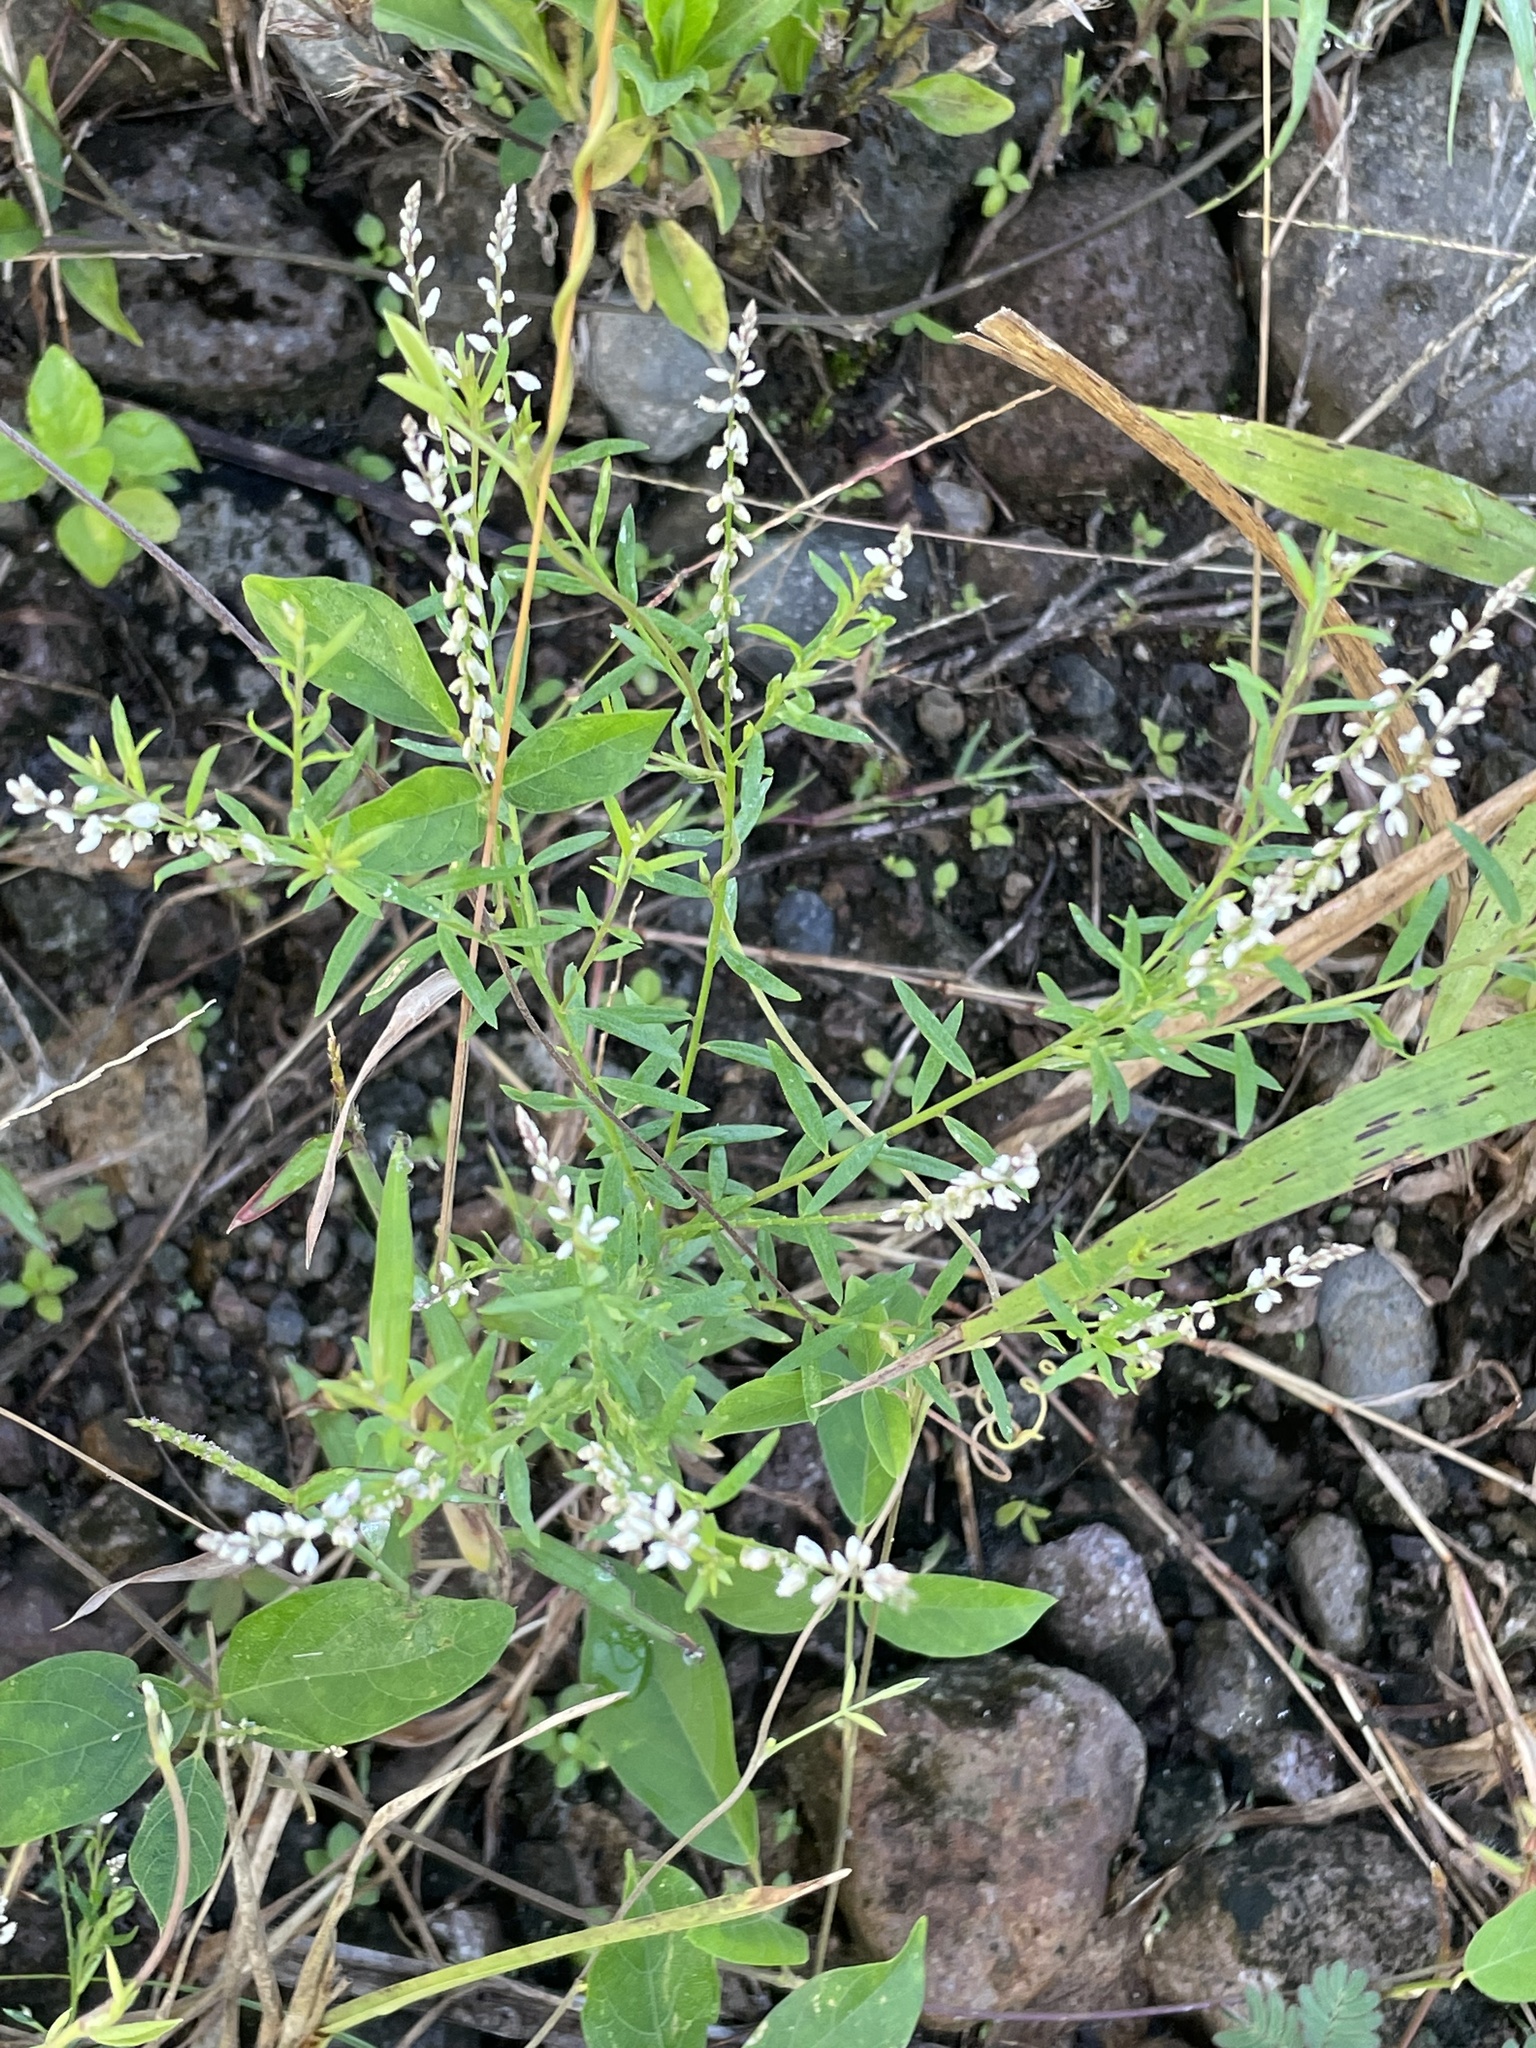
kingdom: Plantae
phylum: Tracheophyta
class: Magnoliopsida
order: Fabales
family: Polygalaceae
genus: Polygala
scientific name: Polygala paniculata
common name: Orosne
